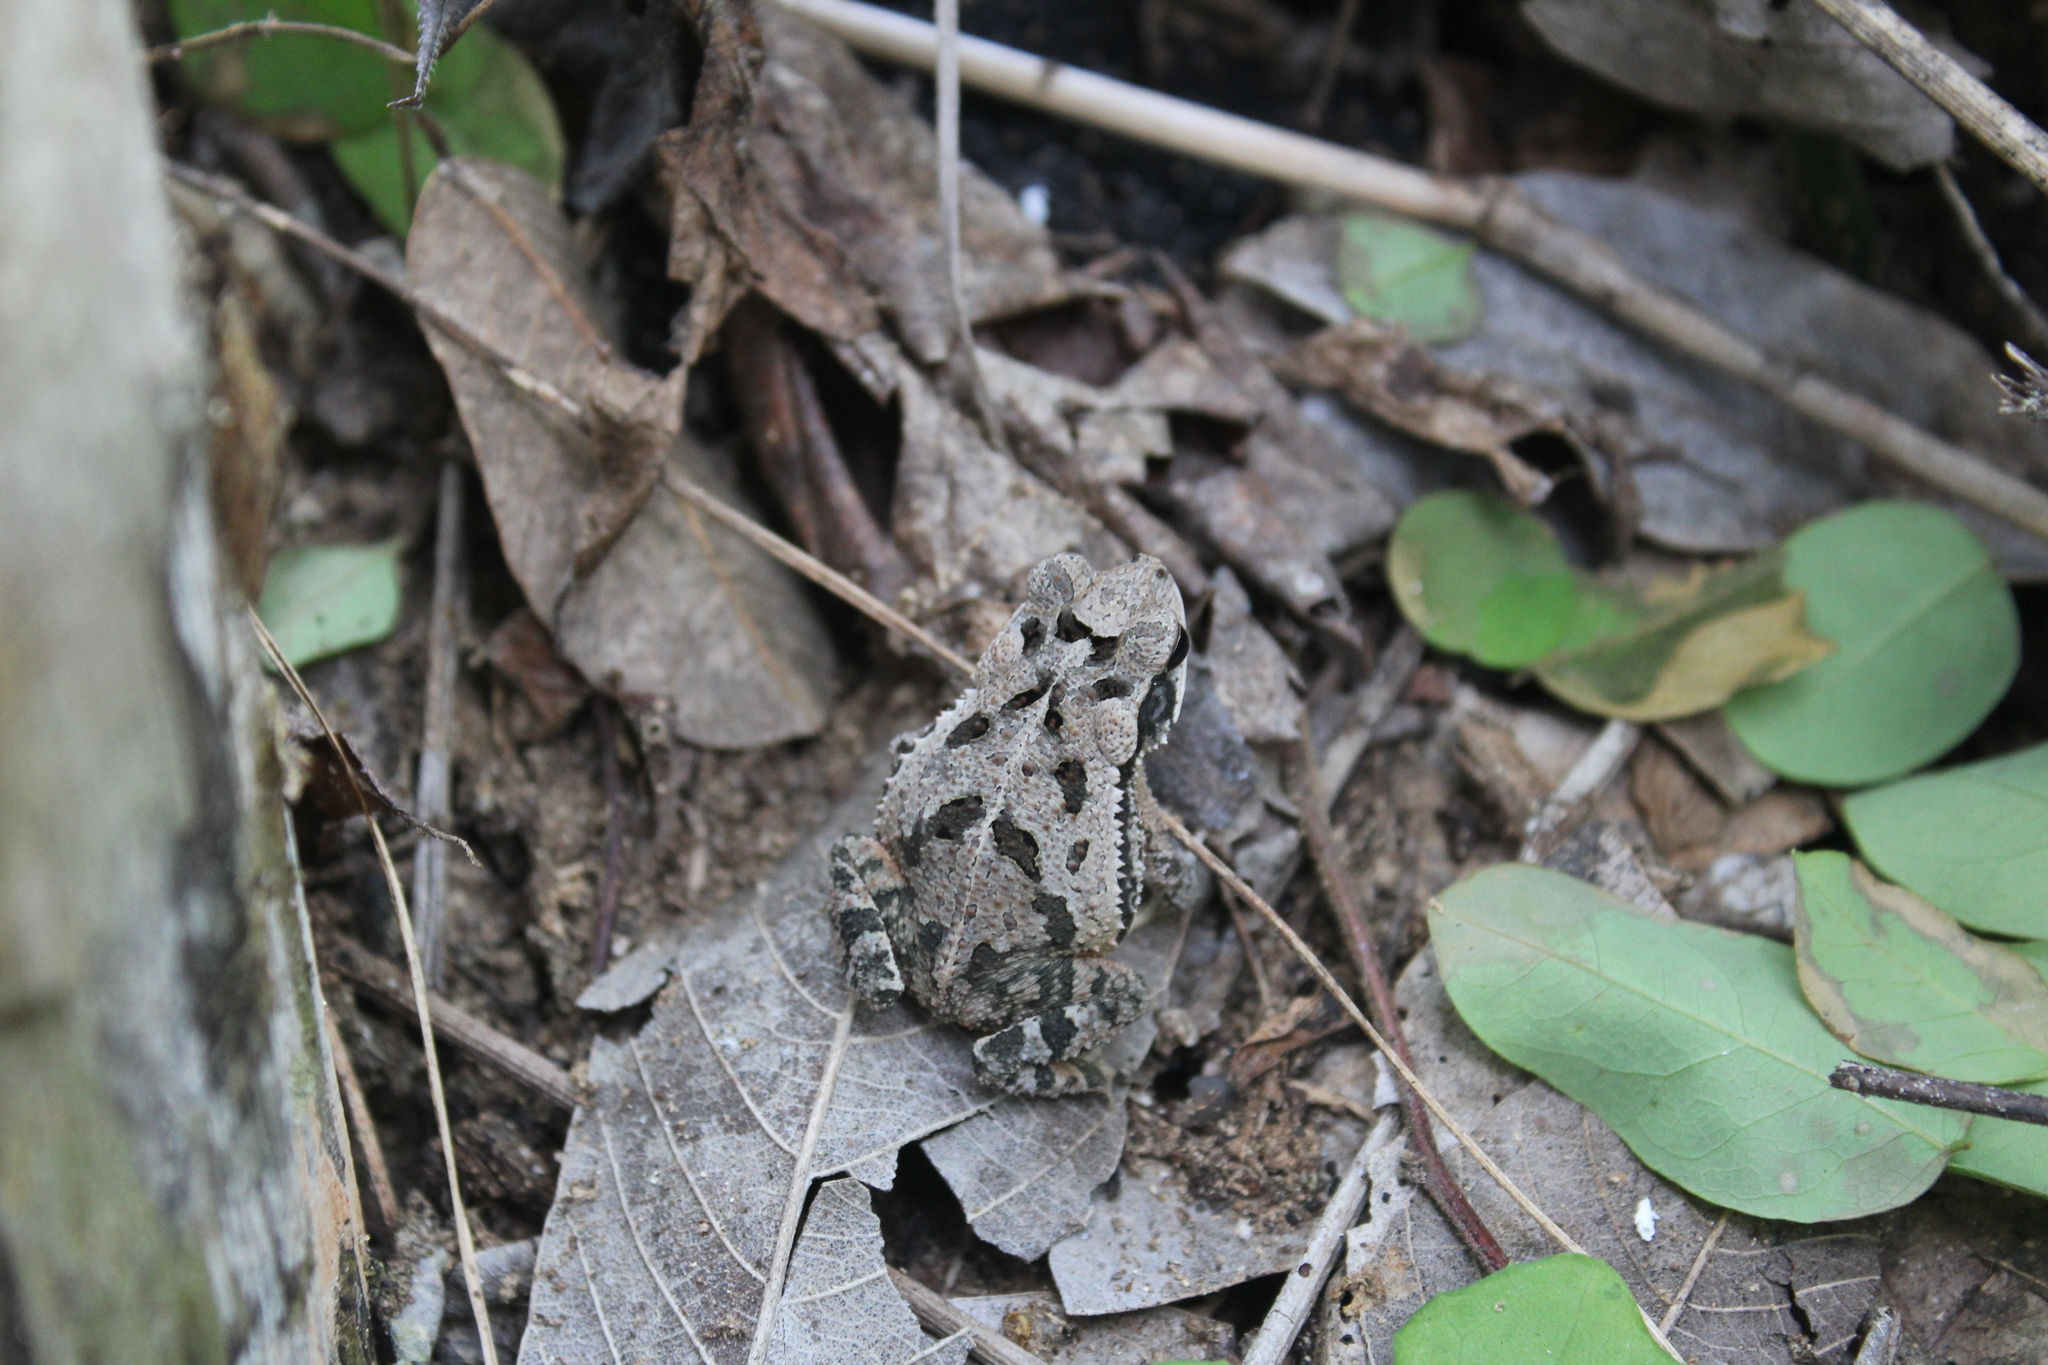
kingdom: Animalia
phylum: Chordata
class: Amphibia
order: Anura
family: Bufonidae
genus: Incilius
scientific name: Incilius valliceps
